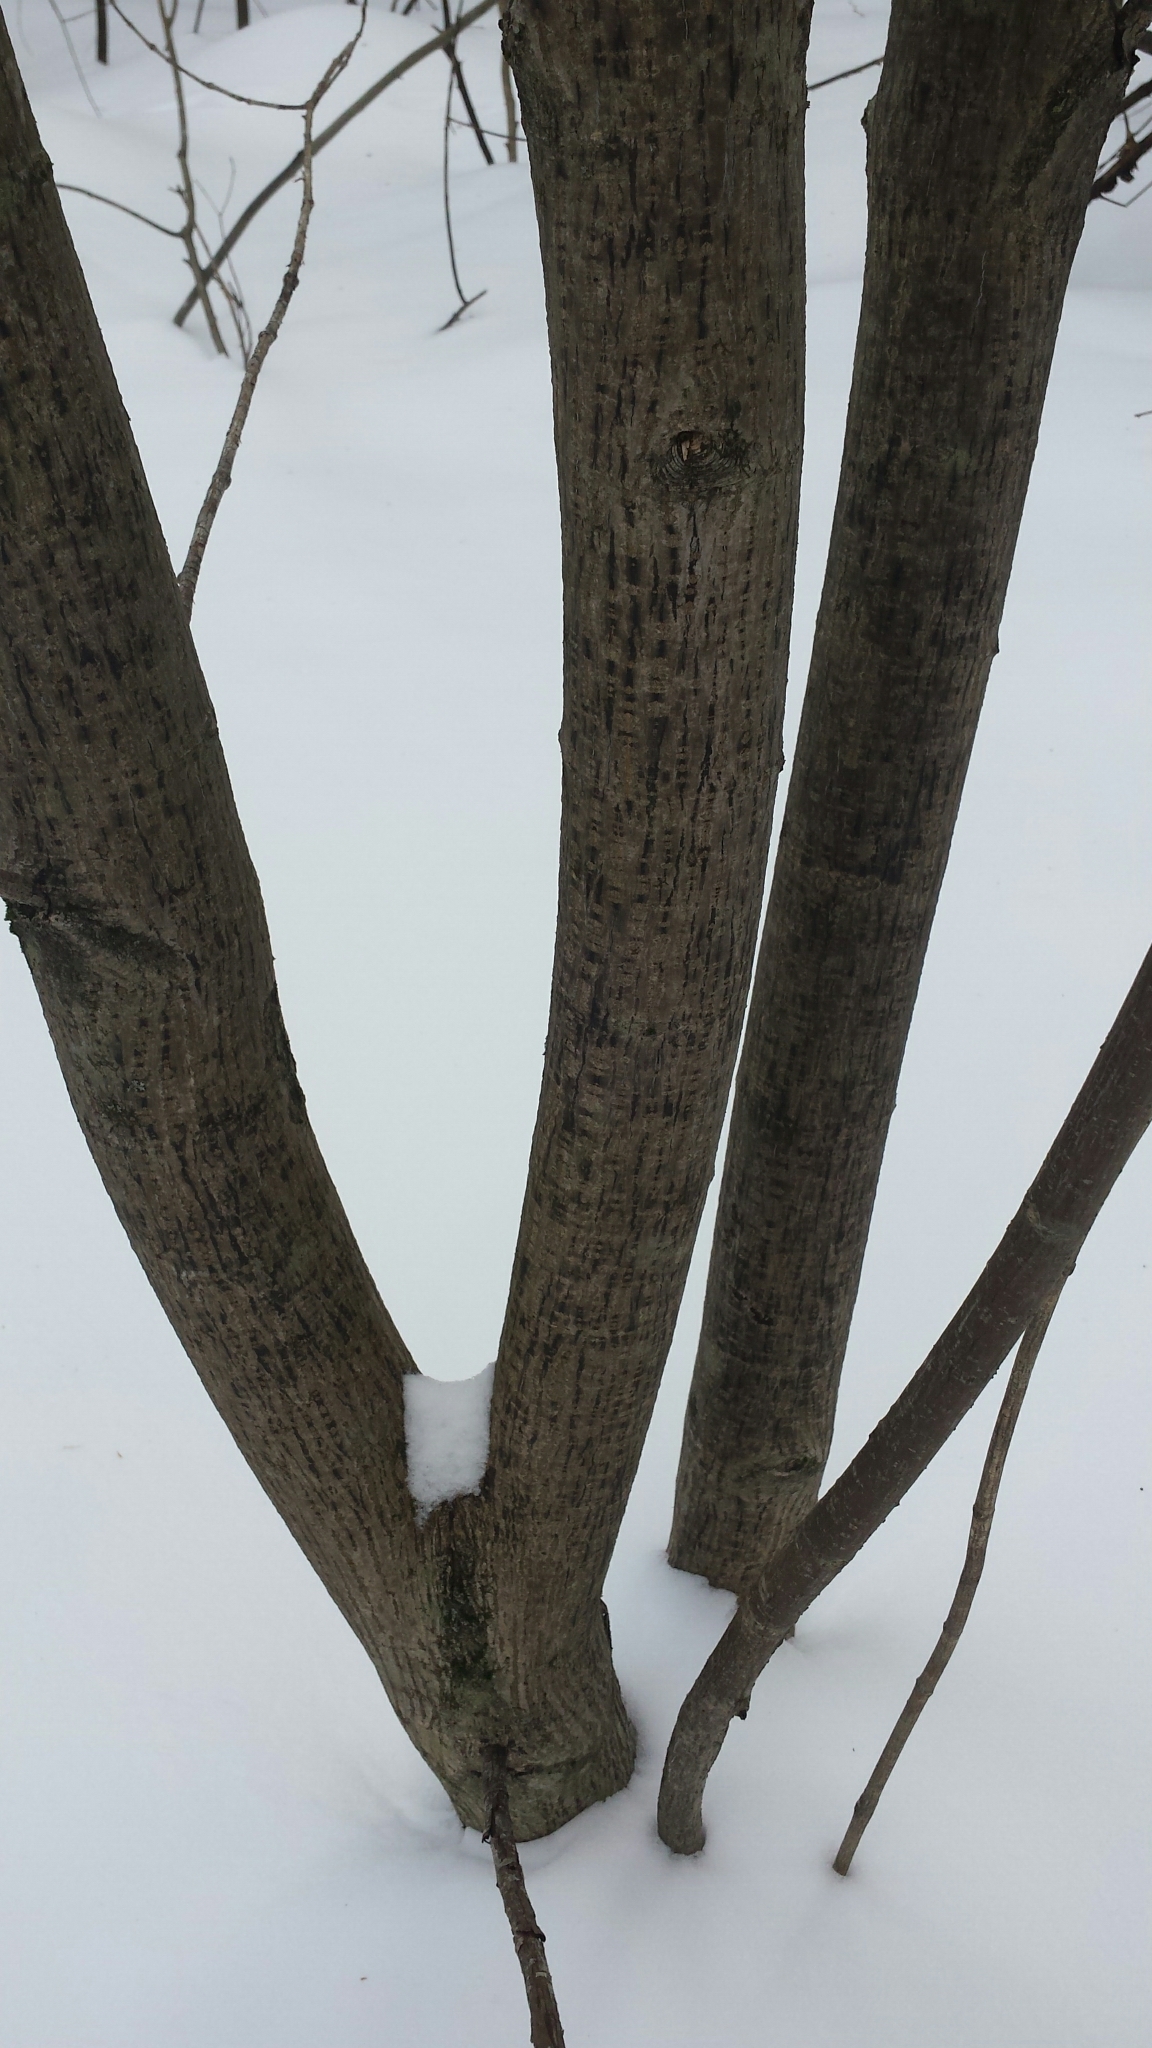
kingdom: Plantae
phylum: Tracheophyta
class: Magnoliopsida
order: Sapindales
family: Sapindaceae
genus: Acer
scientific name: Acer pensylvanicum
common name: Moosewood
